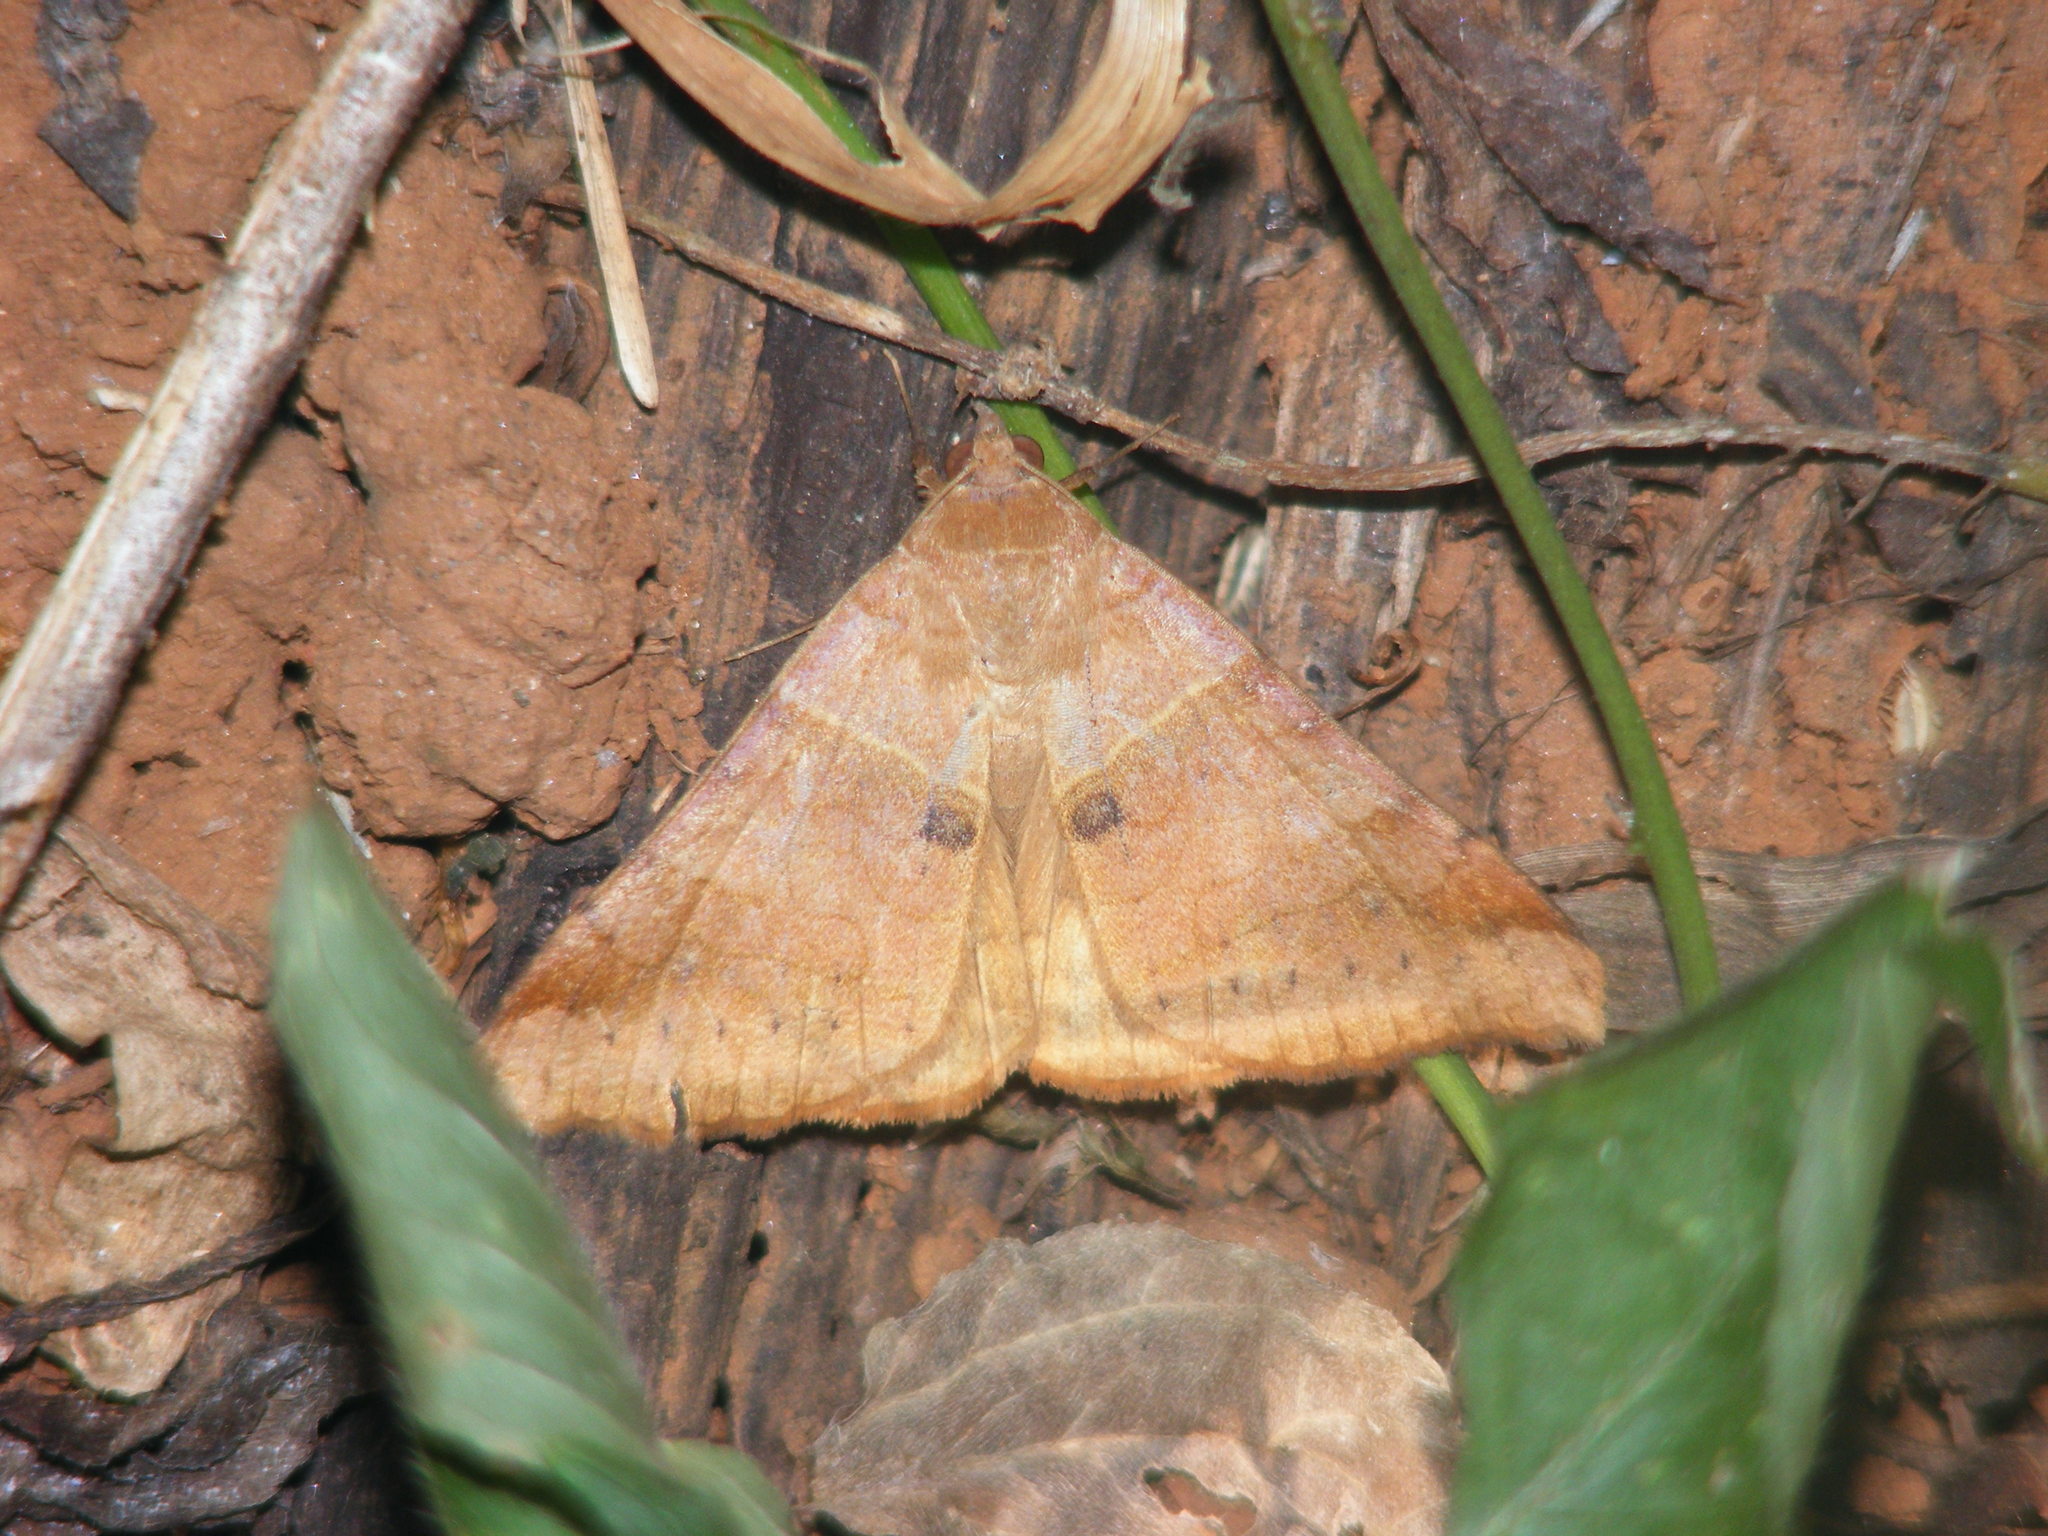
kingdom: Animalia
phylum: Arthropoda
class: Insecta
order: Lepidoptera
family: Erebidae
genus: Mocis
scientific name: Mocis undata
